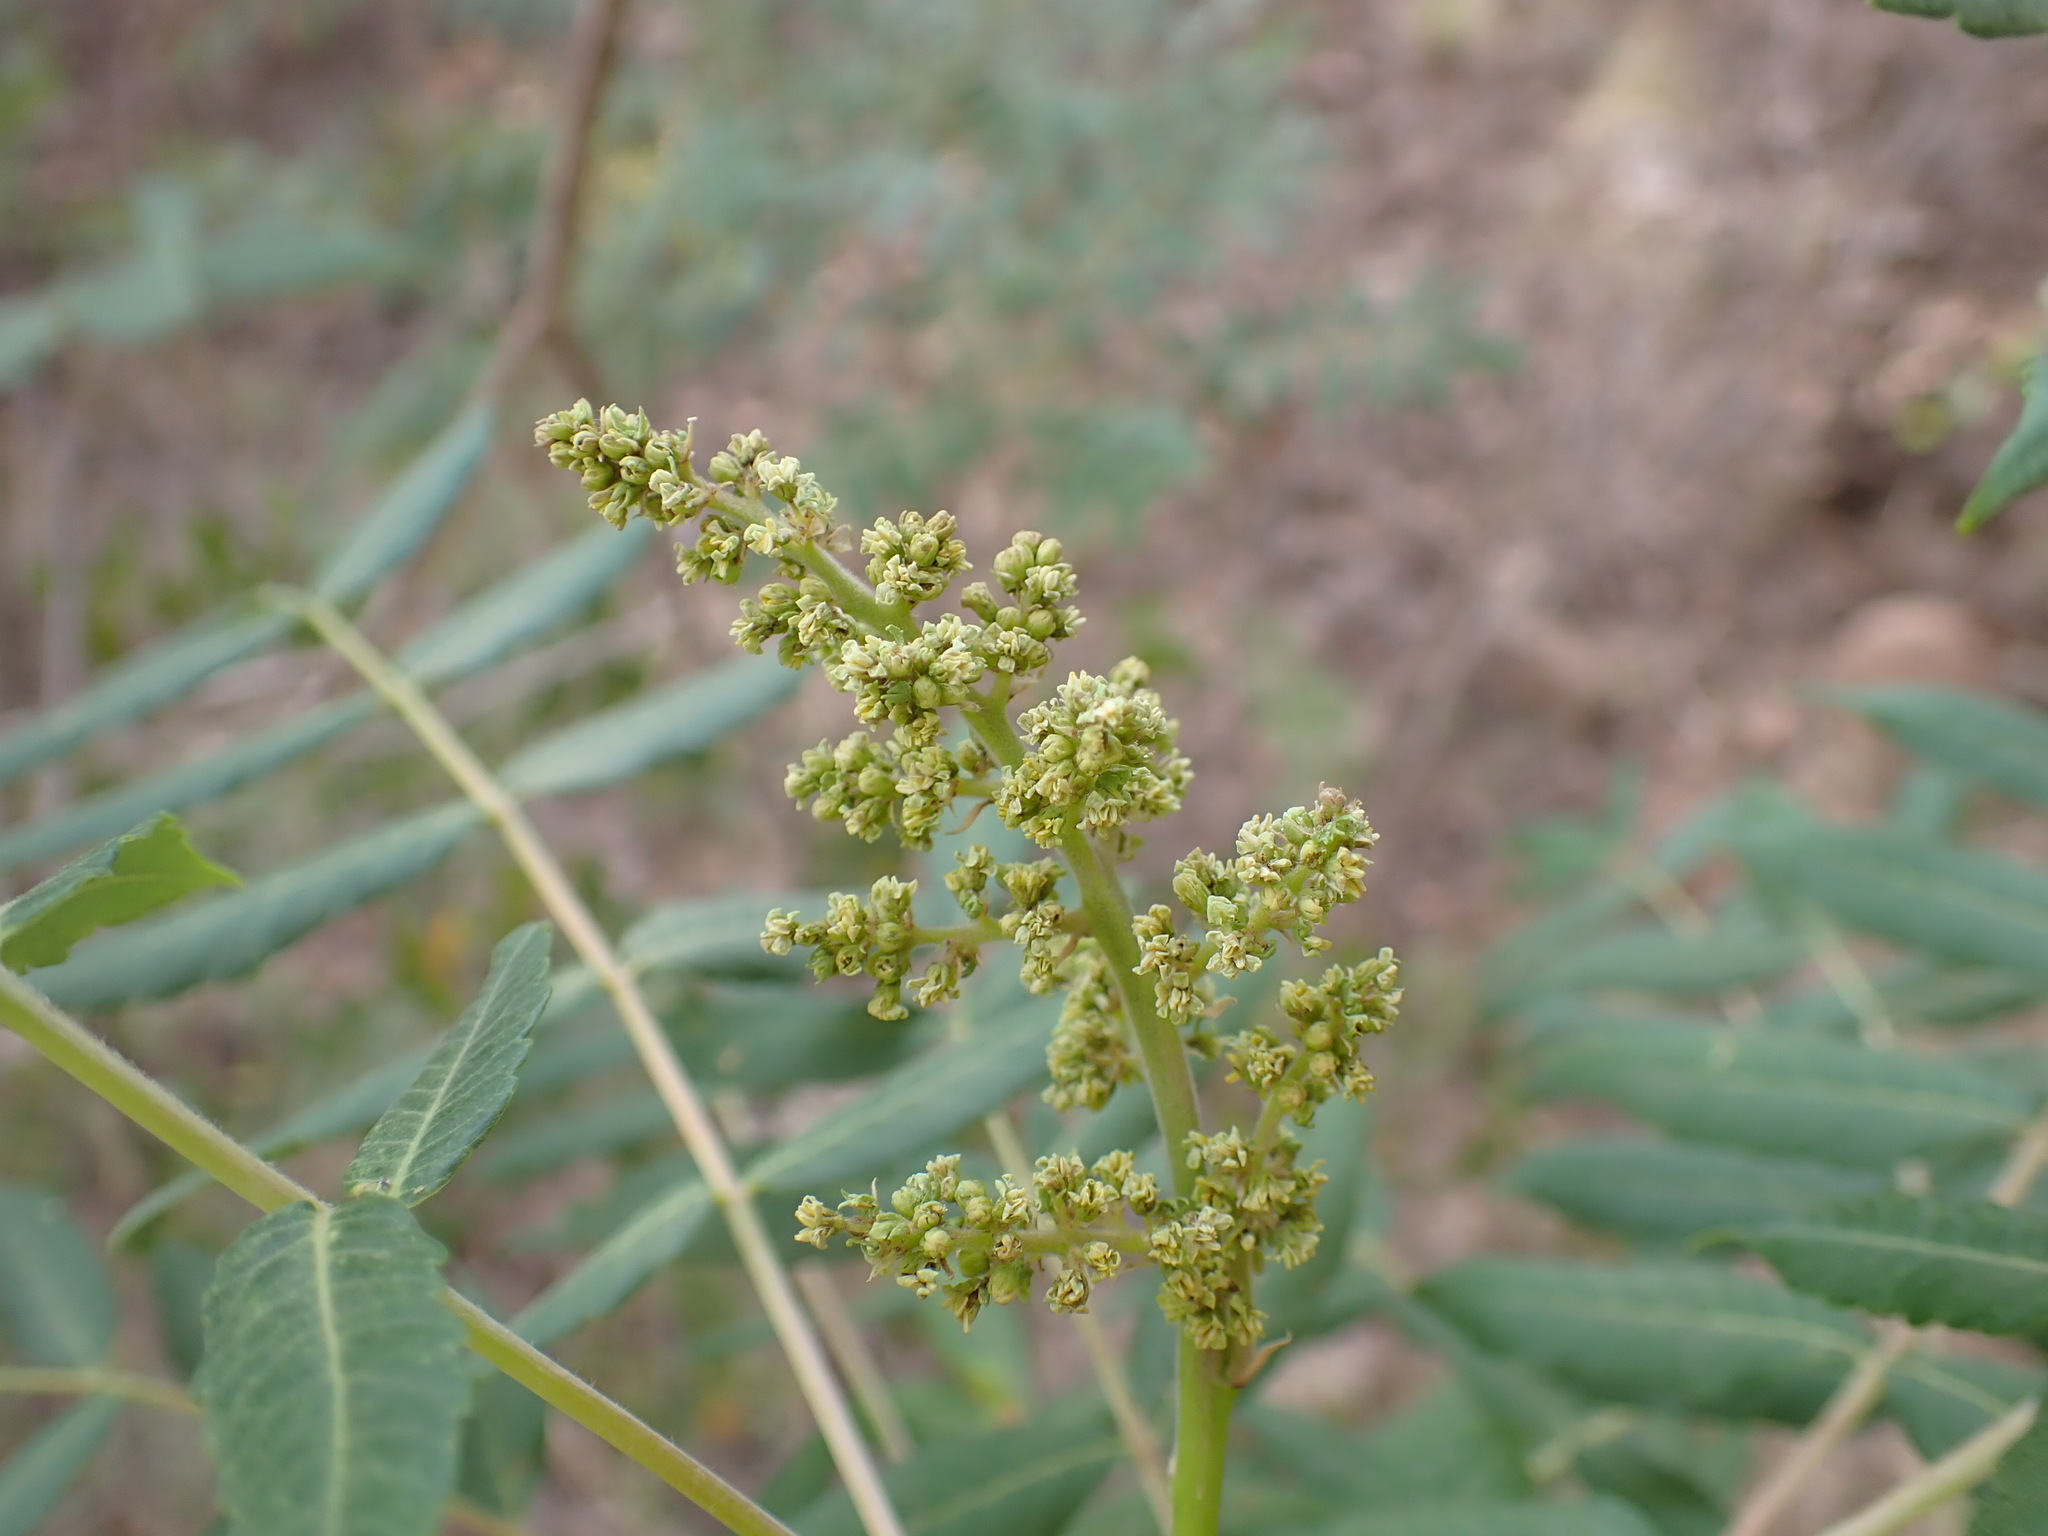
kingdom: Plantae
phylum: Tracheophyta
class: Magnoliopsida
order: Sapindales
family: Anacardiaceae
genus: Rhus
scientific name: Rhus glabra
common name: Scarlet sumac
